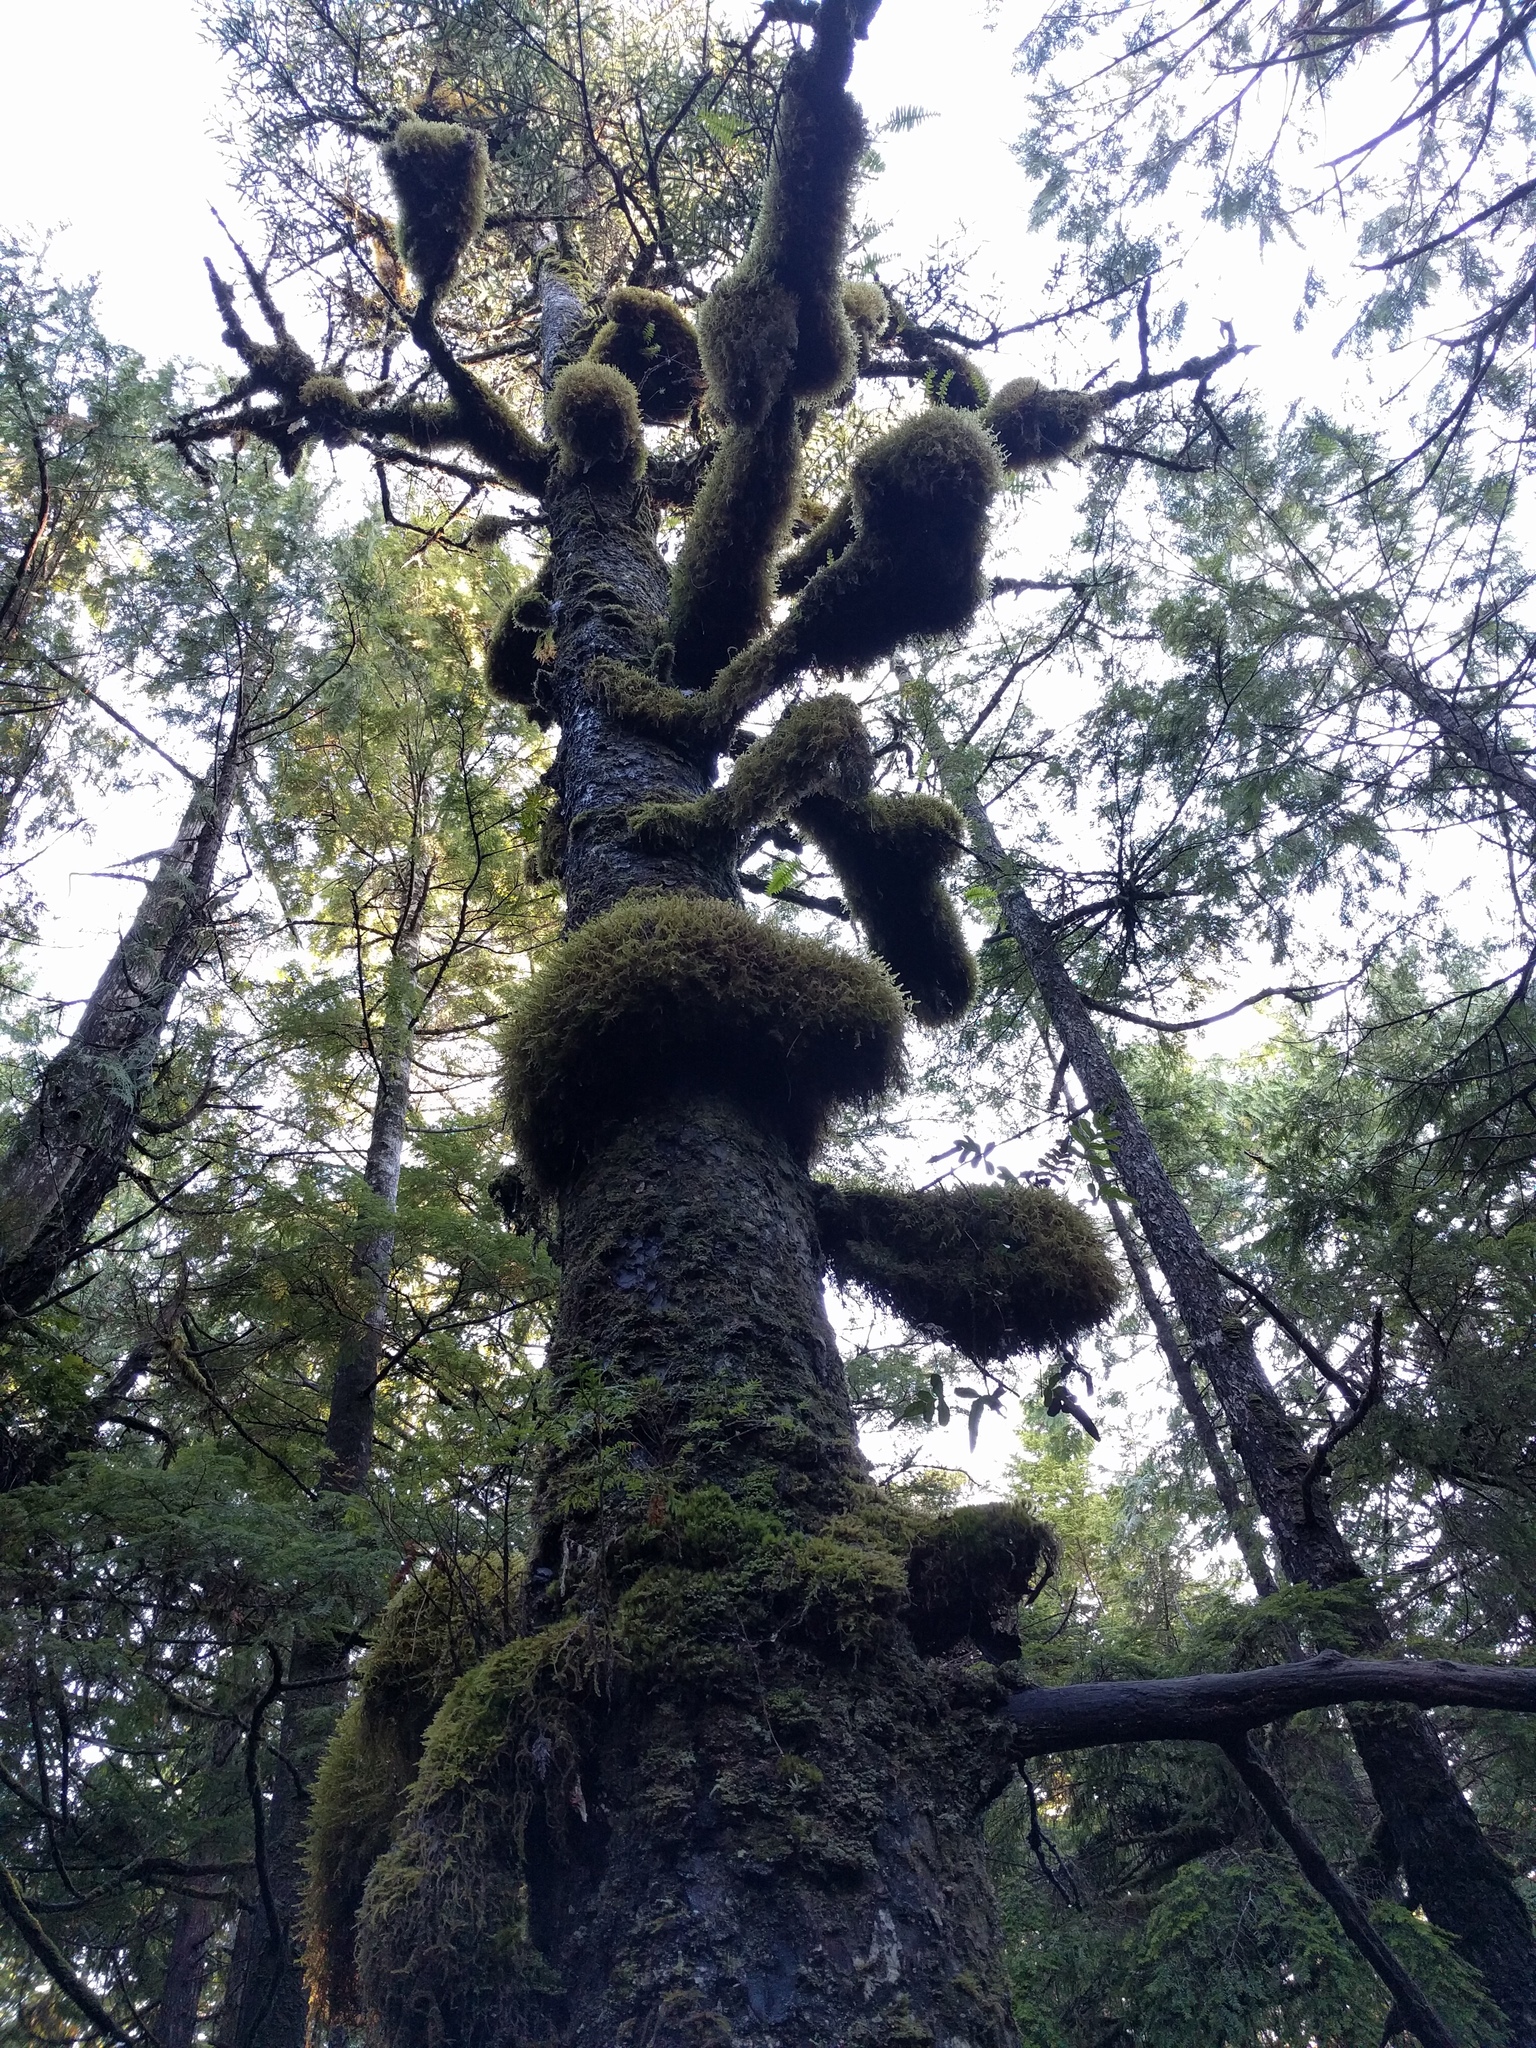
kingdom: Plantae
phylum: Tracheophyta
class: Pinopsida
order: Pinales
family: Pinaceae
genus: Picea
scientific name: Picea sitchensis
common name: Sitka spruce
